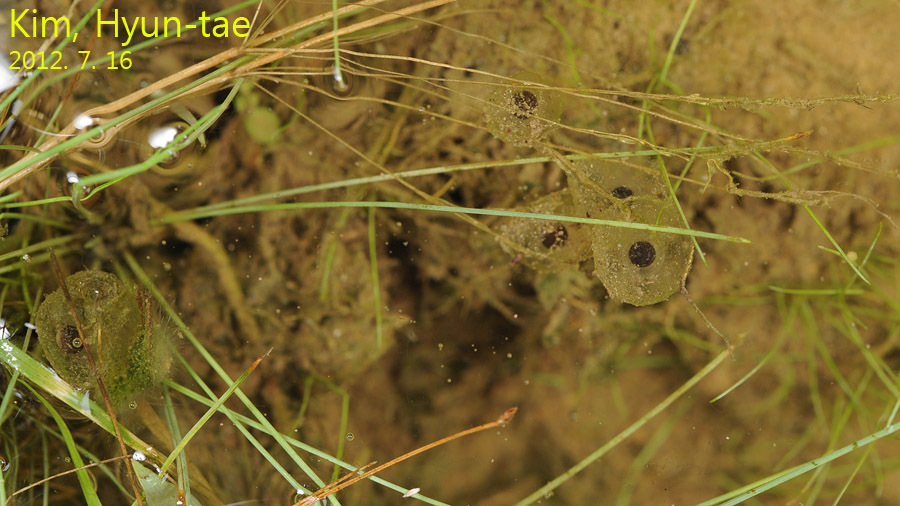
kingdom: Animalia
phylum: Chordata
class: Amphibia
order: Anura
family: Bombinatoridae
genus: Bombina
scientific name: Bombina orientalis
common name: Oriental firebelly toad
